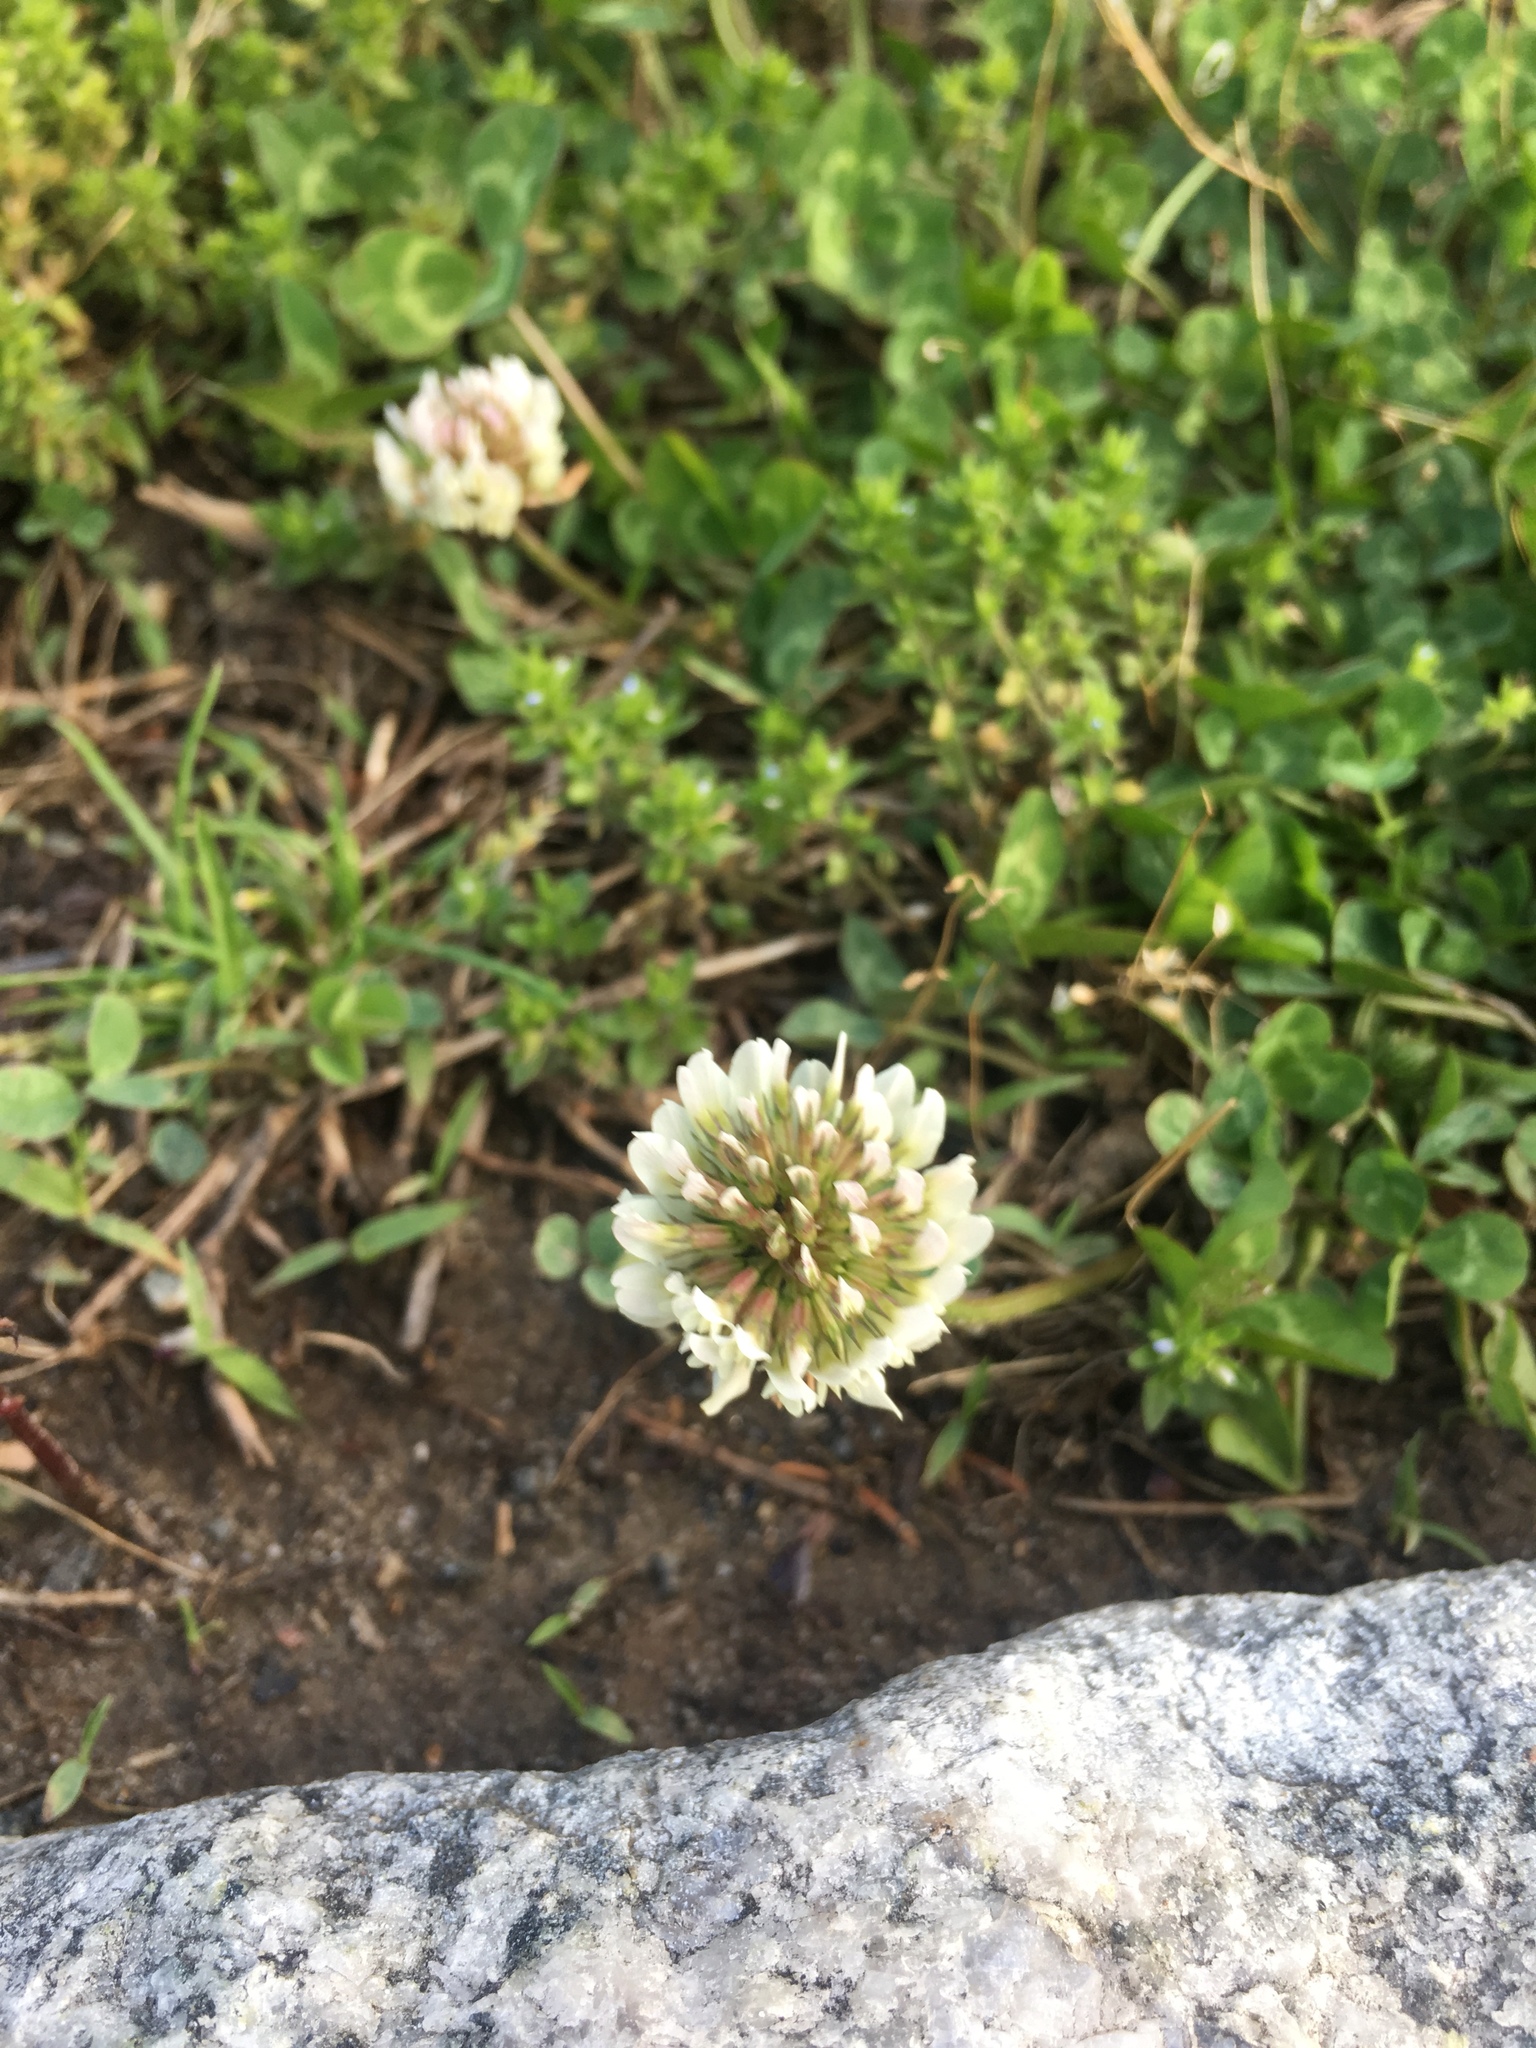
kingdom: Plantae
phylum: Tracheophyta
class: Magnoliopsida
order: Fabales
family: Fabaceae
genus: Trifolium
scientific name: Trifolium repens
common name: White clover
